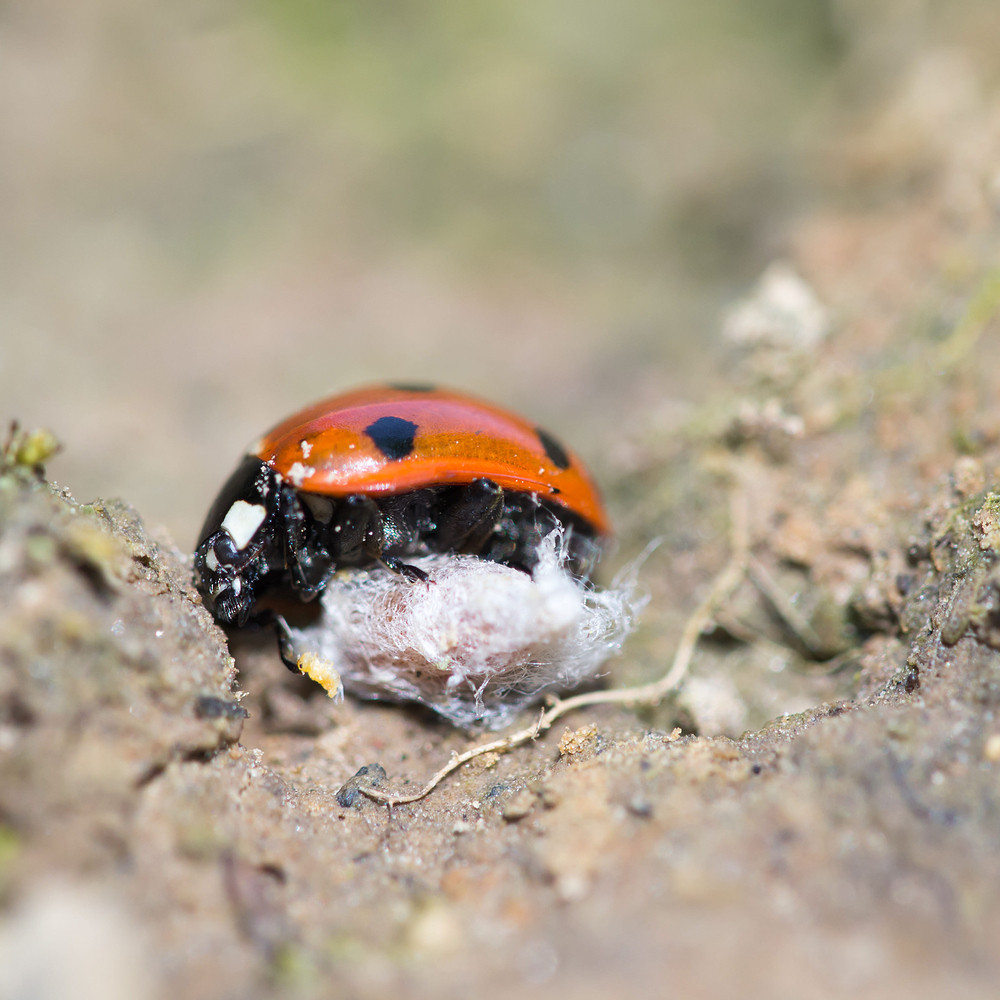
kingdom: Animalia
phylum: Arthropoda
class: Insecta
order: Hymenoptera
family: Braconidae
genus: Dinocampus
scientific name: Dinocampus coccinellae
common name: Braconid wasp
